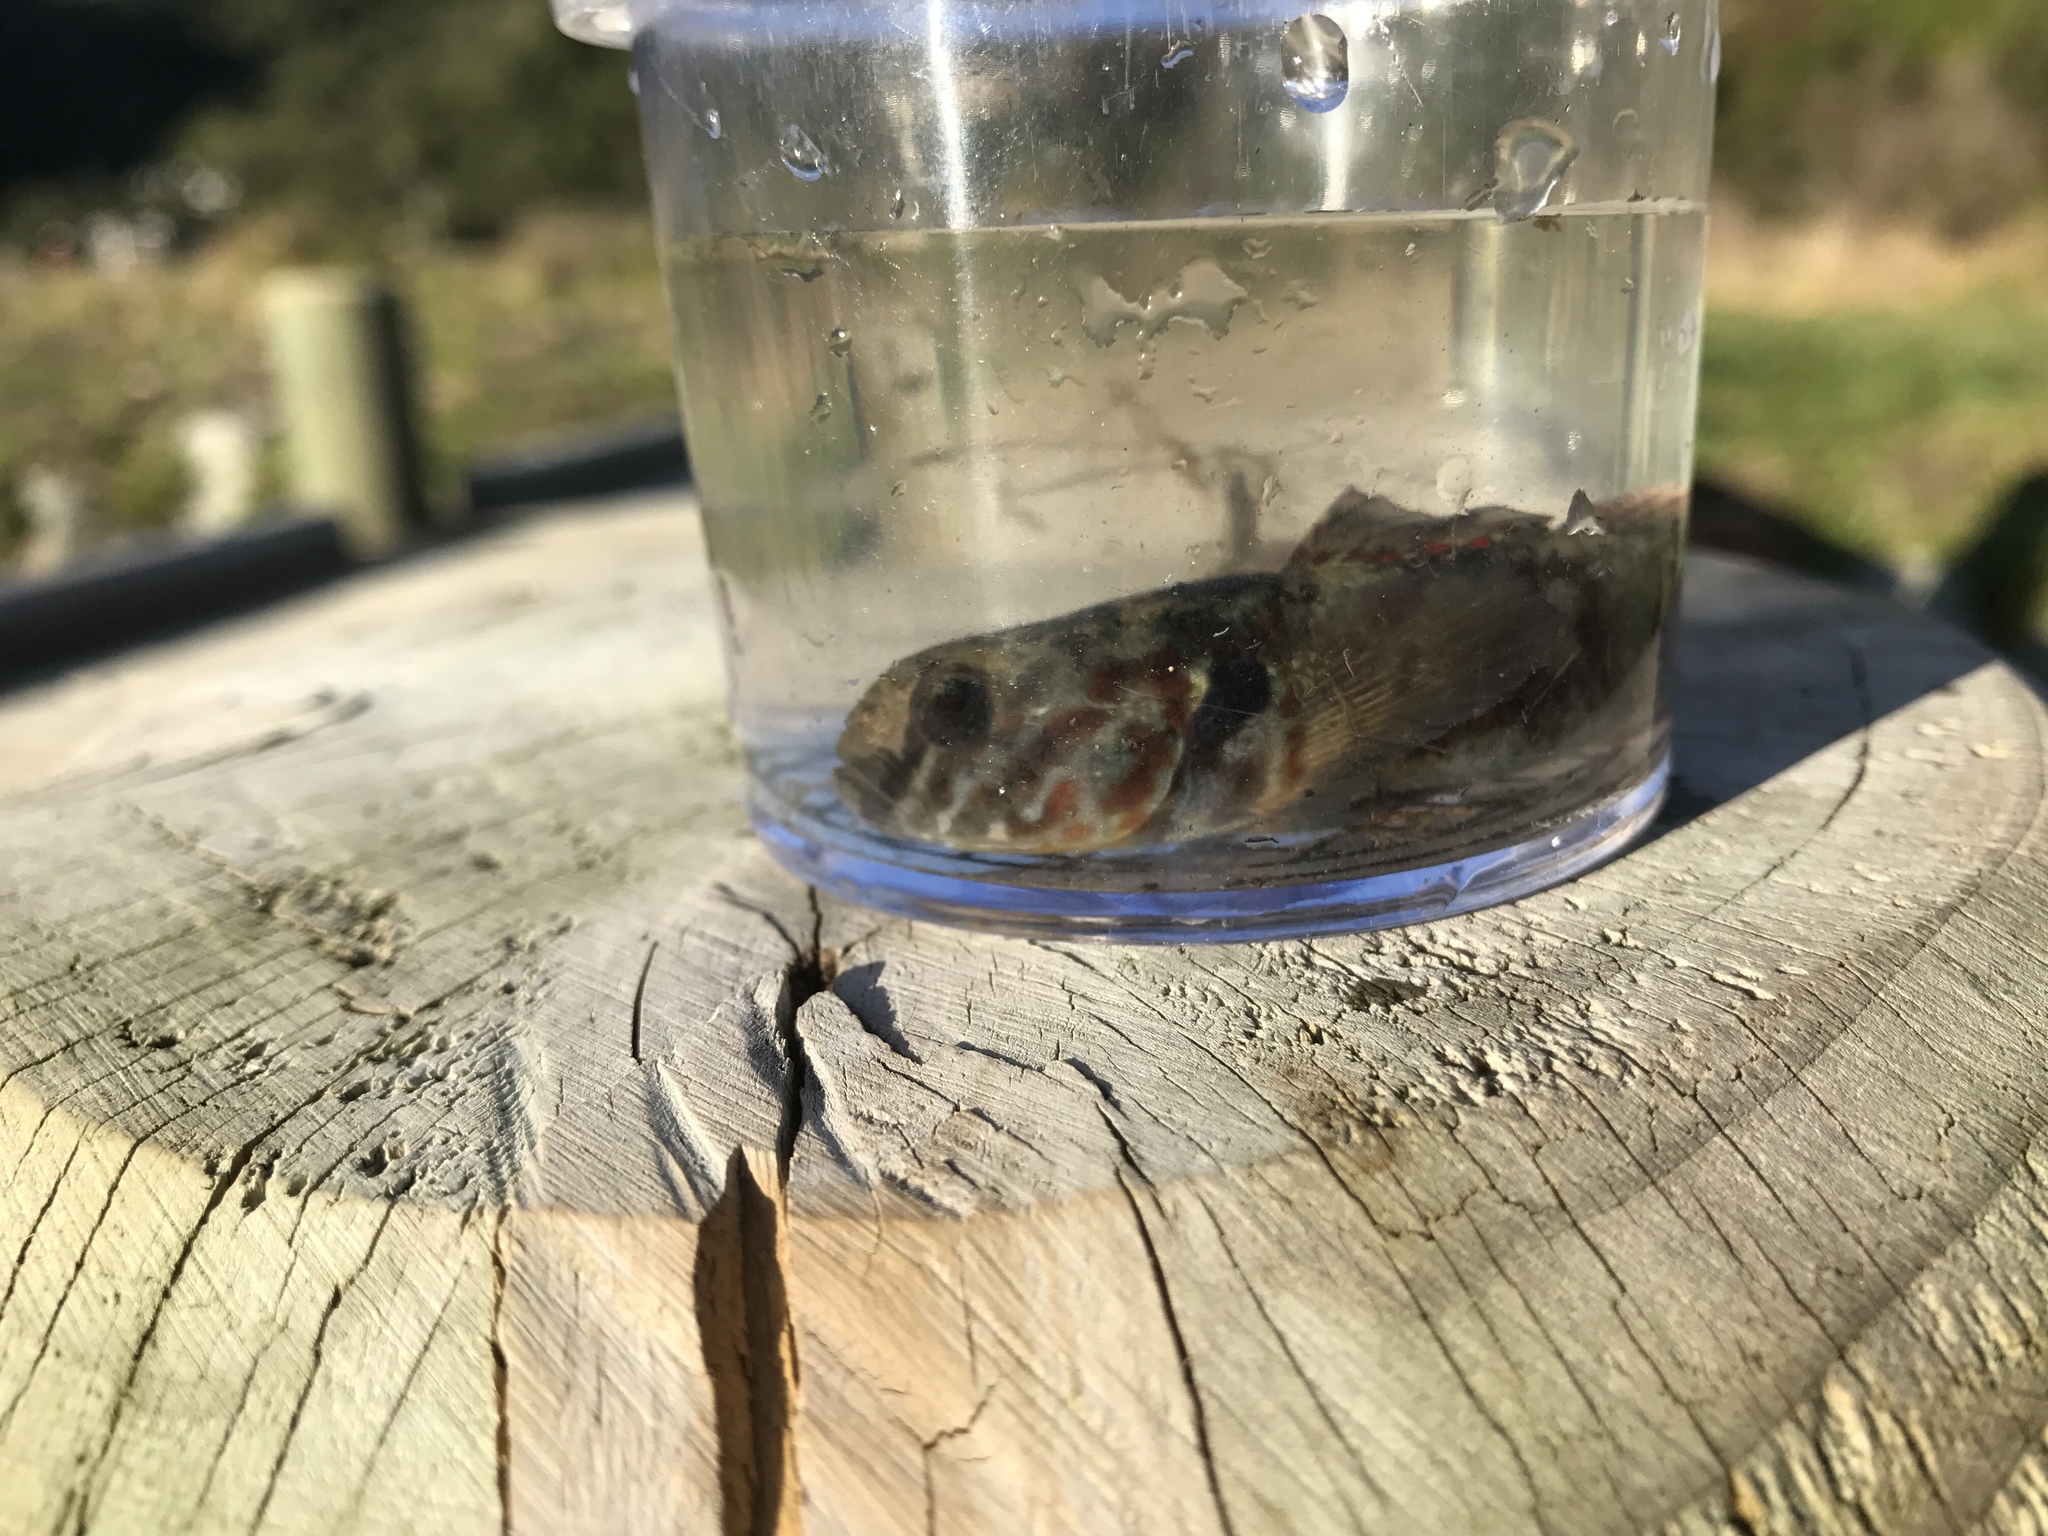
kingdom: Animalia
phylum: Chordata
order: Perciformes
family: Eleotridae
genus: Gobiomorphus
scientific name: Gobiomorphus huttoni
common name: Redfin bully
